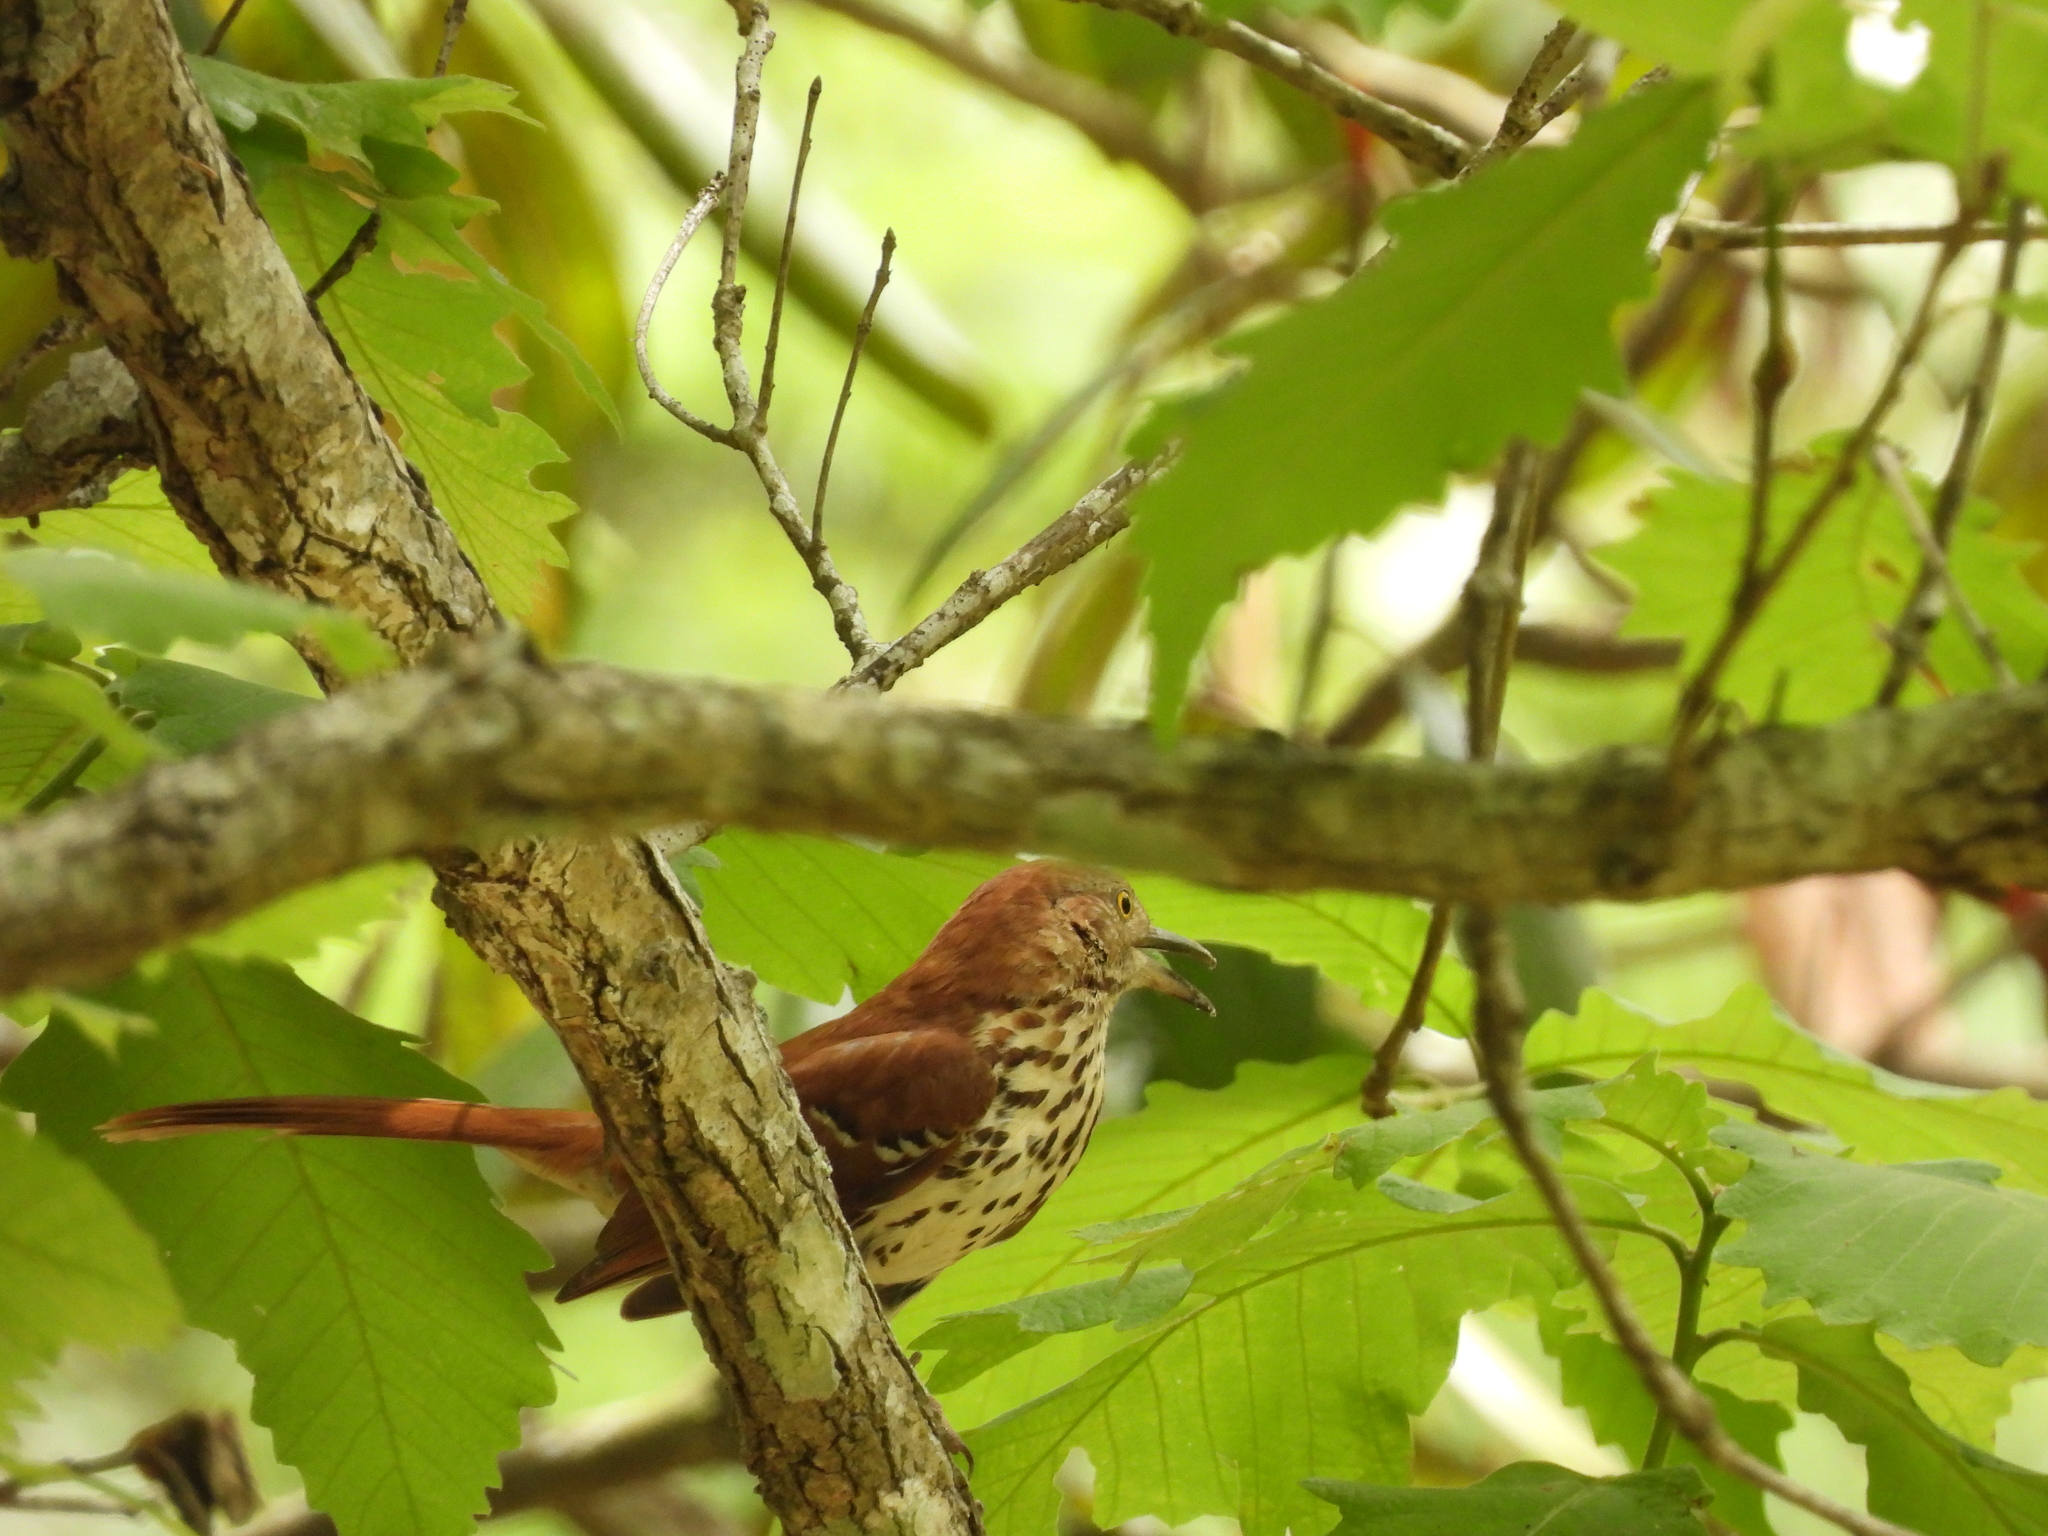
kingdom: Animalia
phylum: Chordata
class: Aves
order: Passeriformes
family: Mimidae
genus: Toxostoma
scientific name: Toxostoma rufum
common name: Brown thrasher
